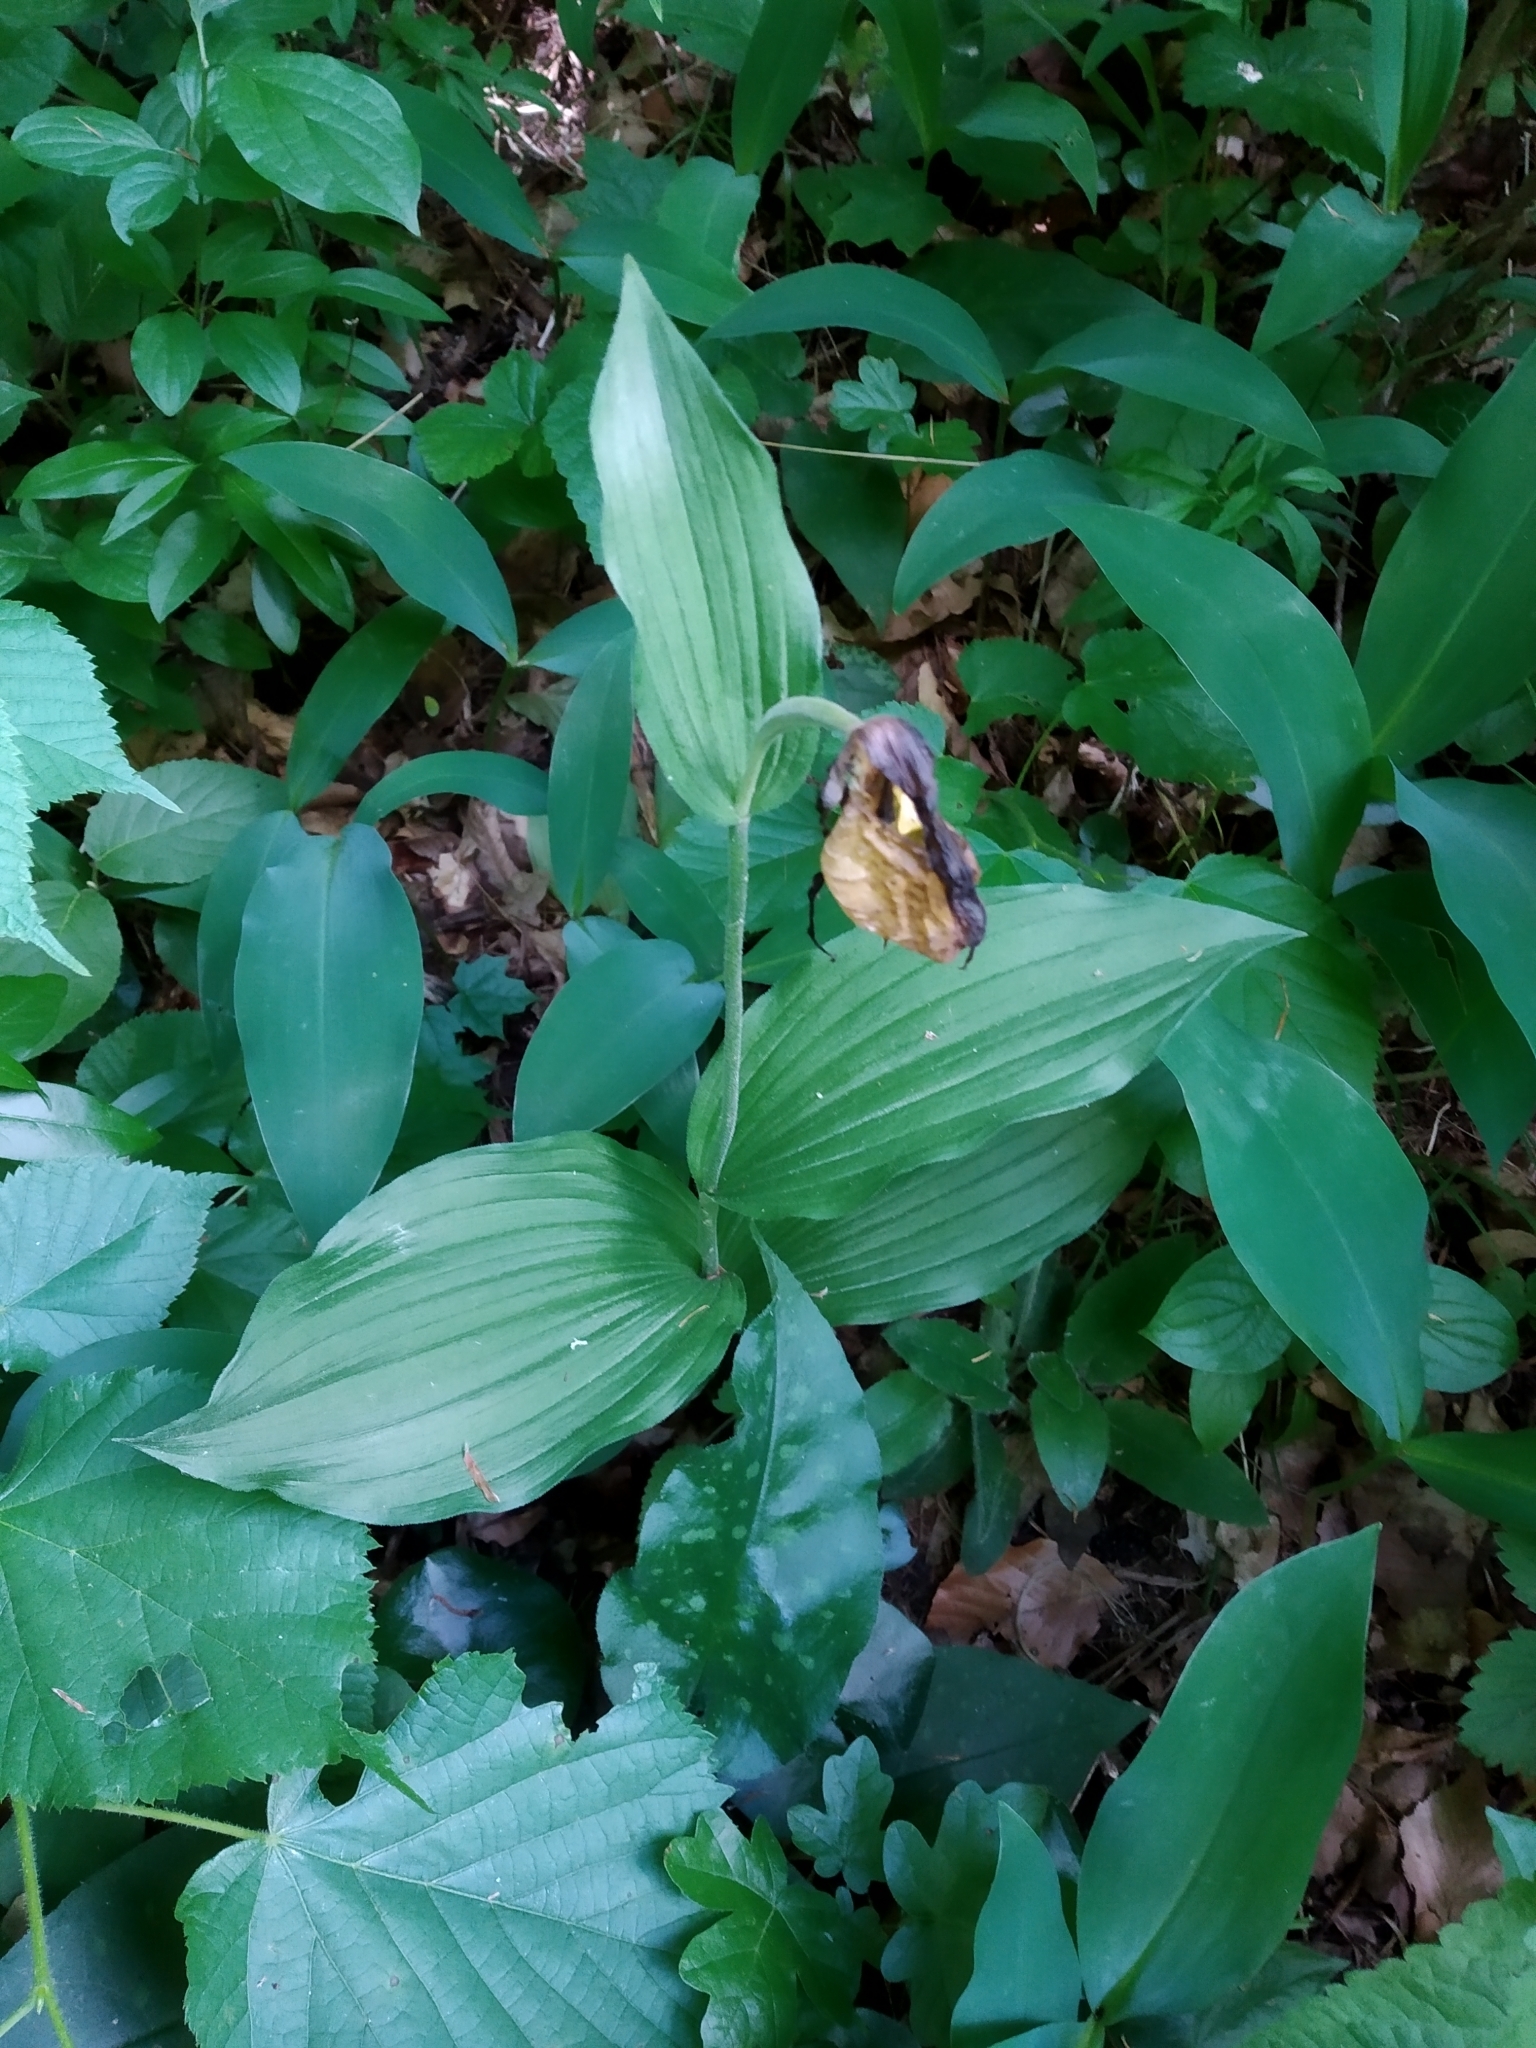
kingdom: Plantae
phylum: Tracheophyta
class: Liliopsida
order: Asparagales
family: Orchidaceae
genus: Cypripedium
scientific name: Cypripedium calceolus
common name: Lady's-slipper
